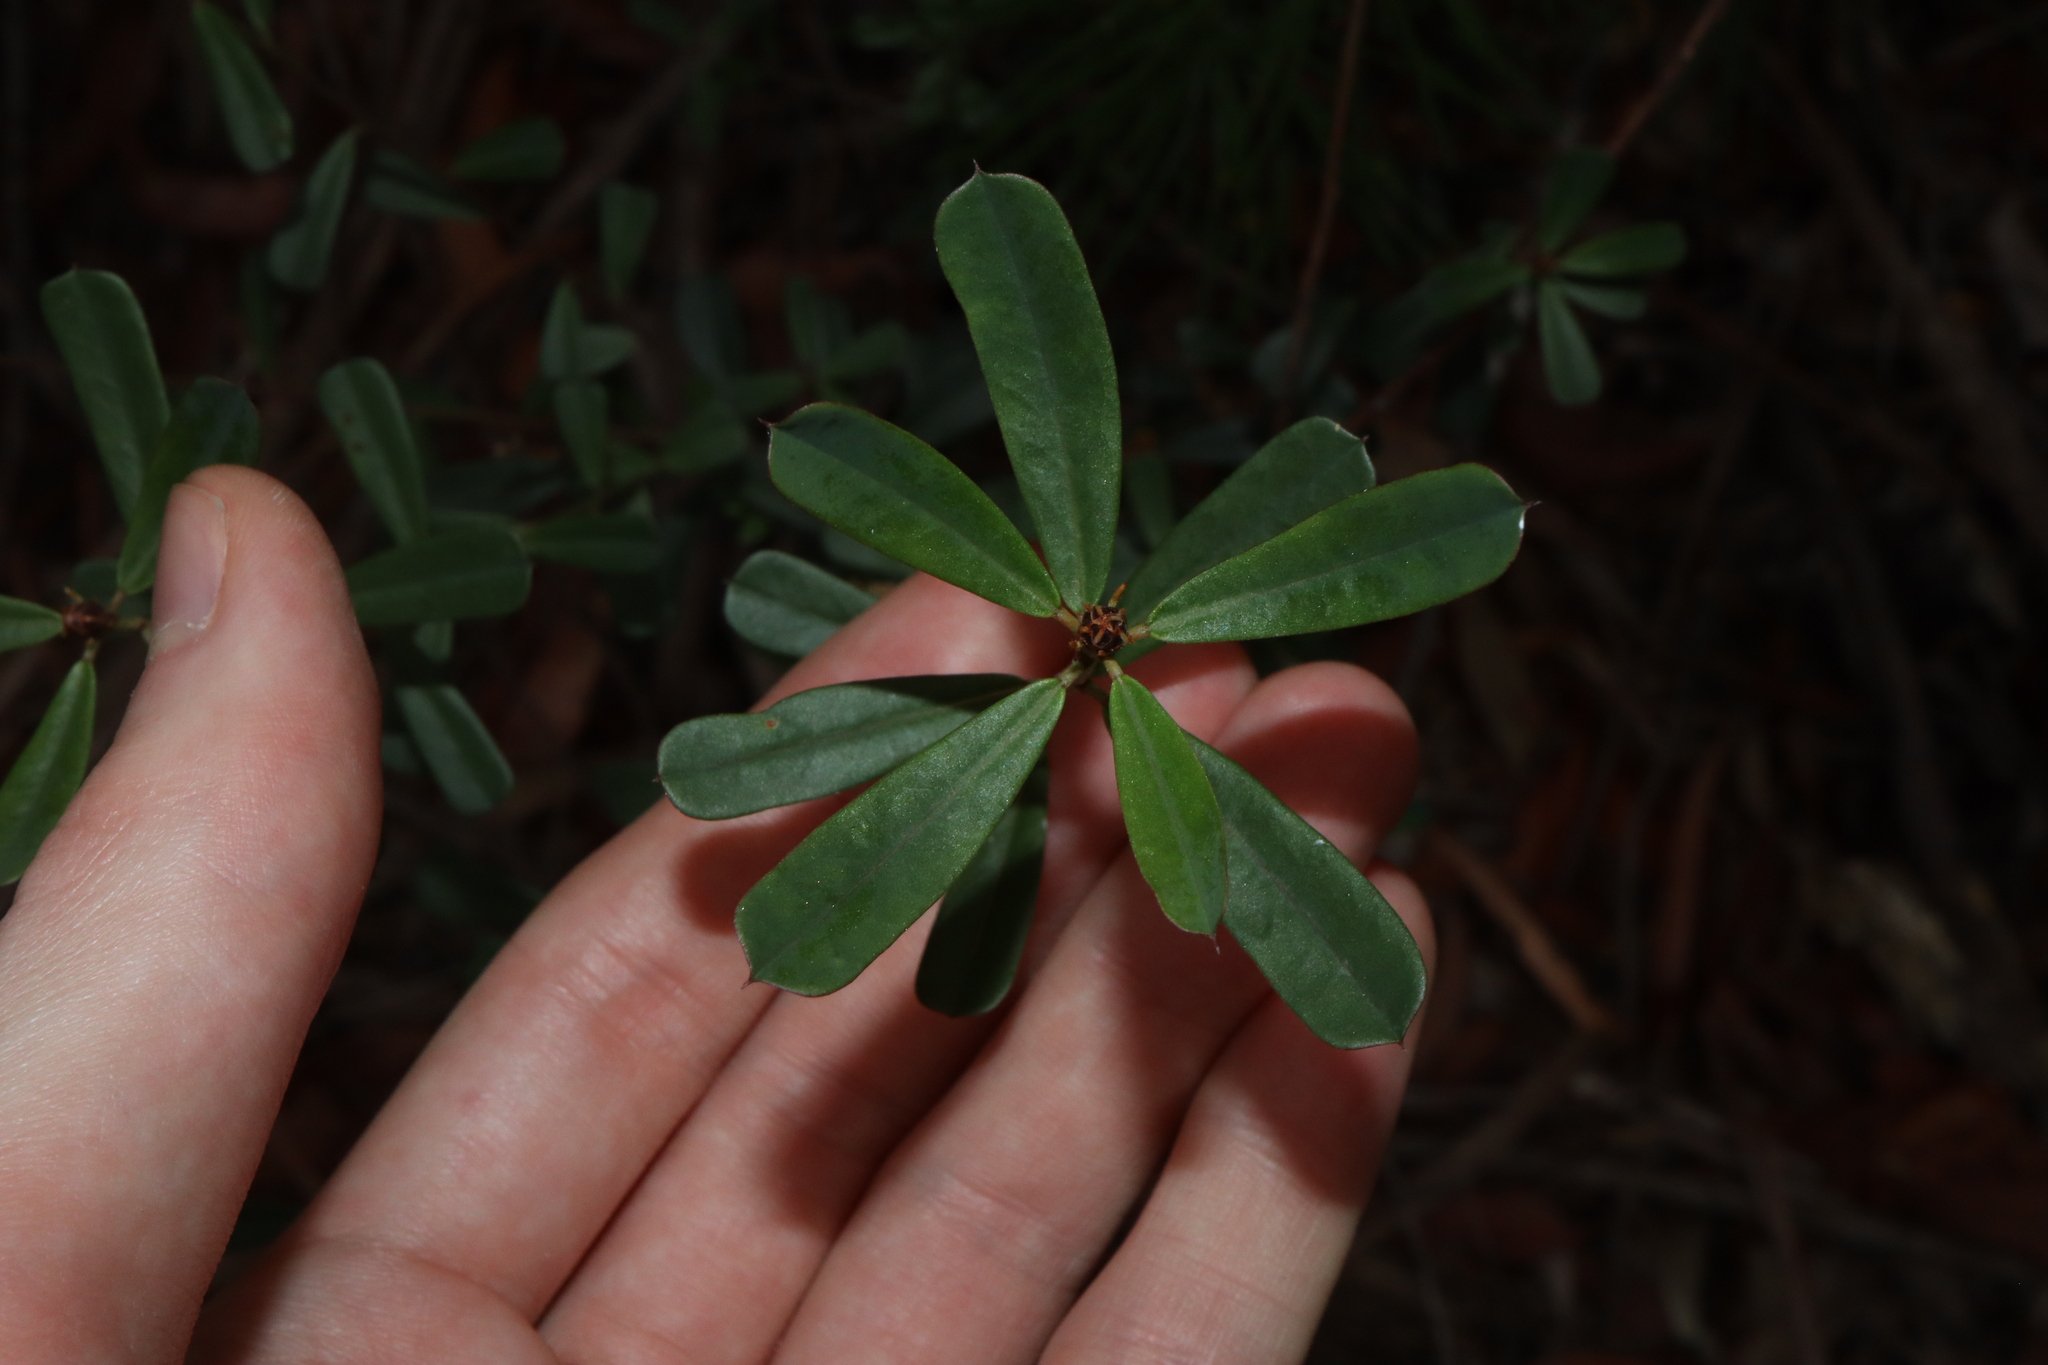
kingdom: Plantae
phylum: Tracheophyta
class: Magnoliopsida
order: Fabales
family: Fabaceae
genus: Pultenaea
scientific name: Pultenaea daphnoides
